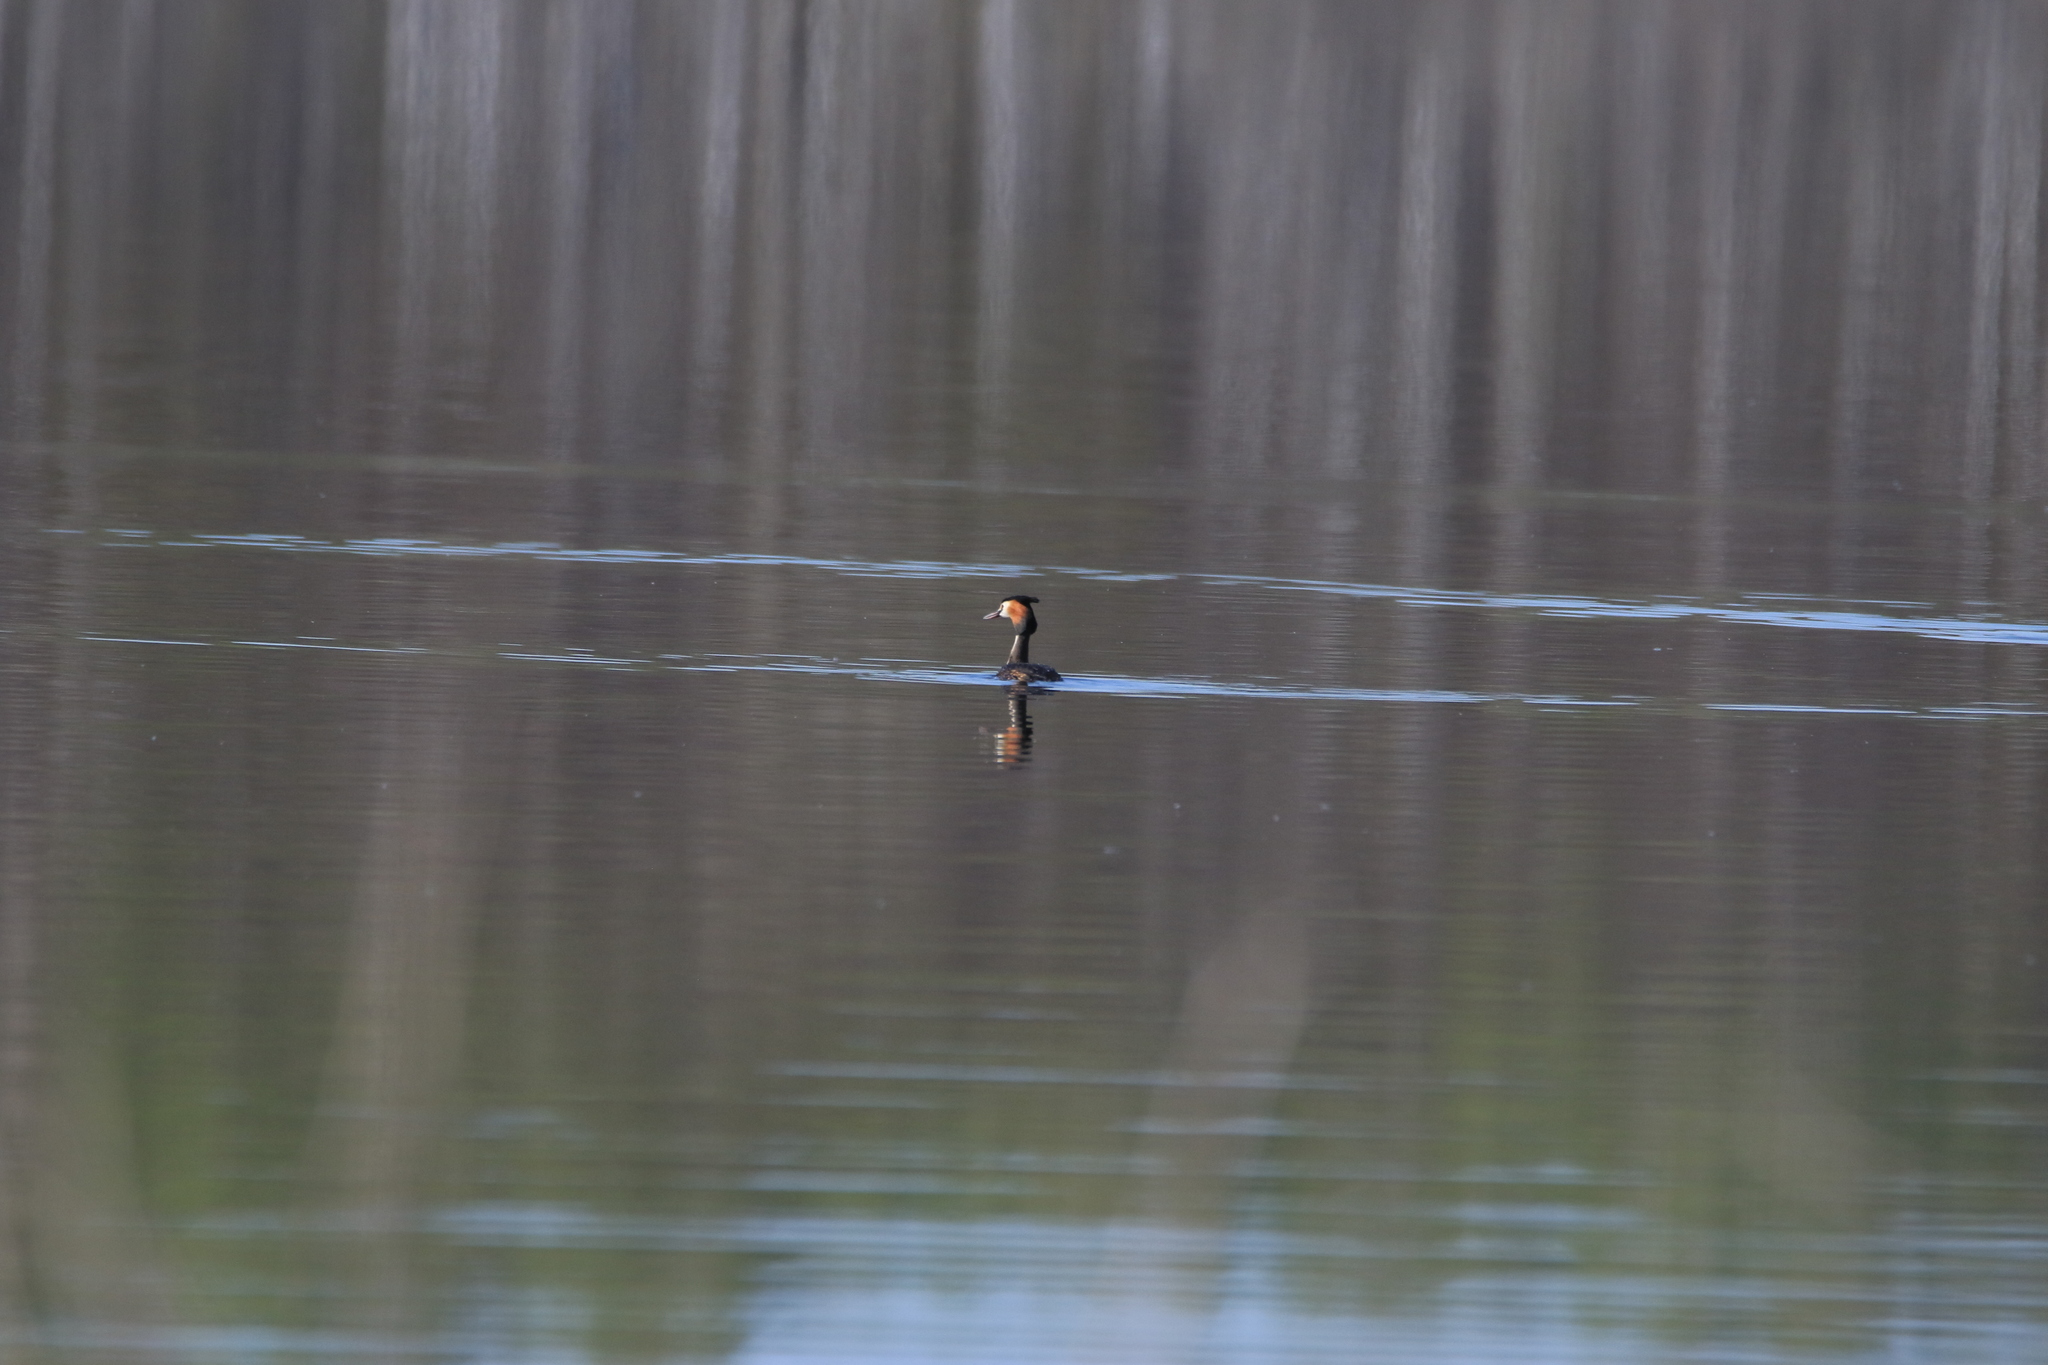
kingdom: Animalia
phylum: Chordata
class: Aves
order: Podicipediformes
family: Podicipedidae
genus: Podiceps
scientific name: Podiceps cristatus
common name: Great crested grebe
